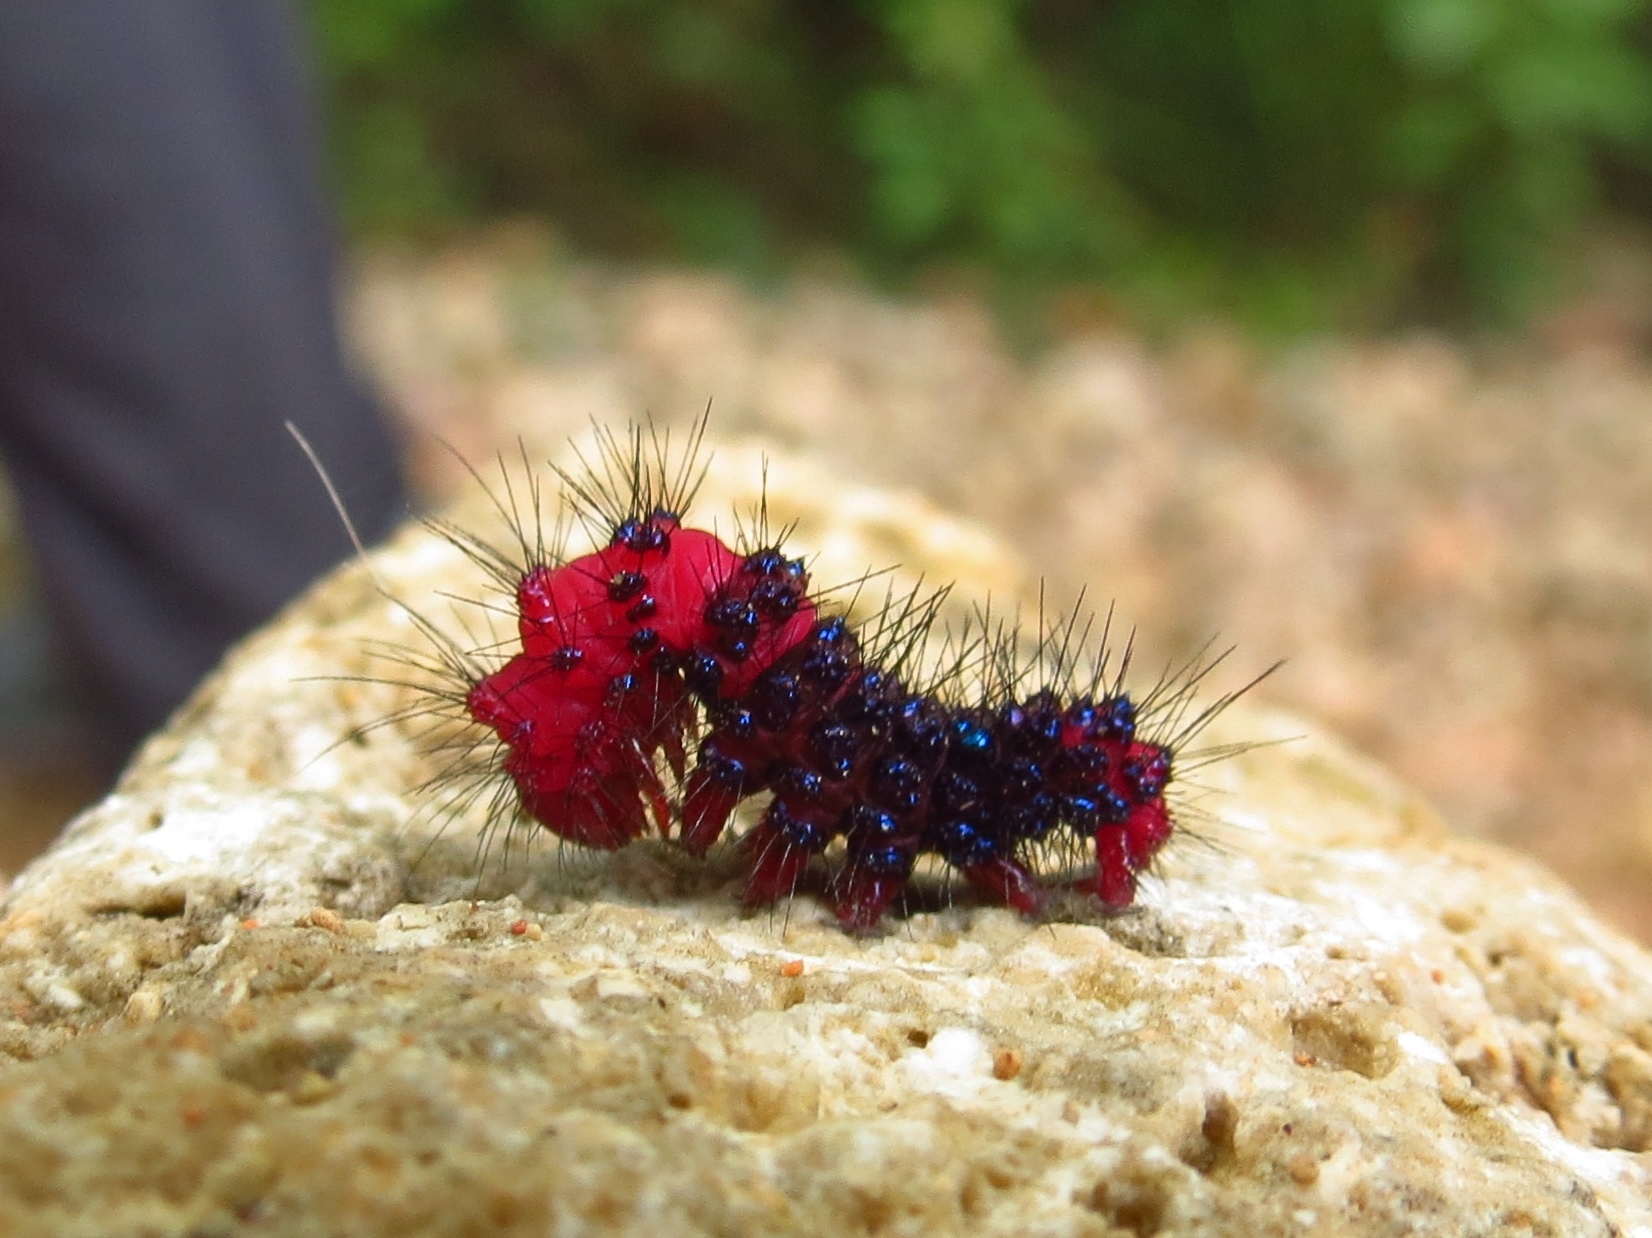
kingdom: Animalia
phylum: Arthropoda
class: Insecta
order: Lepidoptera
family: Erebidae
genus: Composia
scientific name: Composia credula
